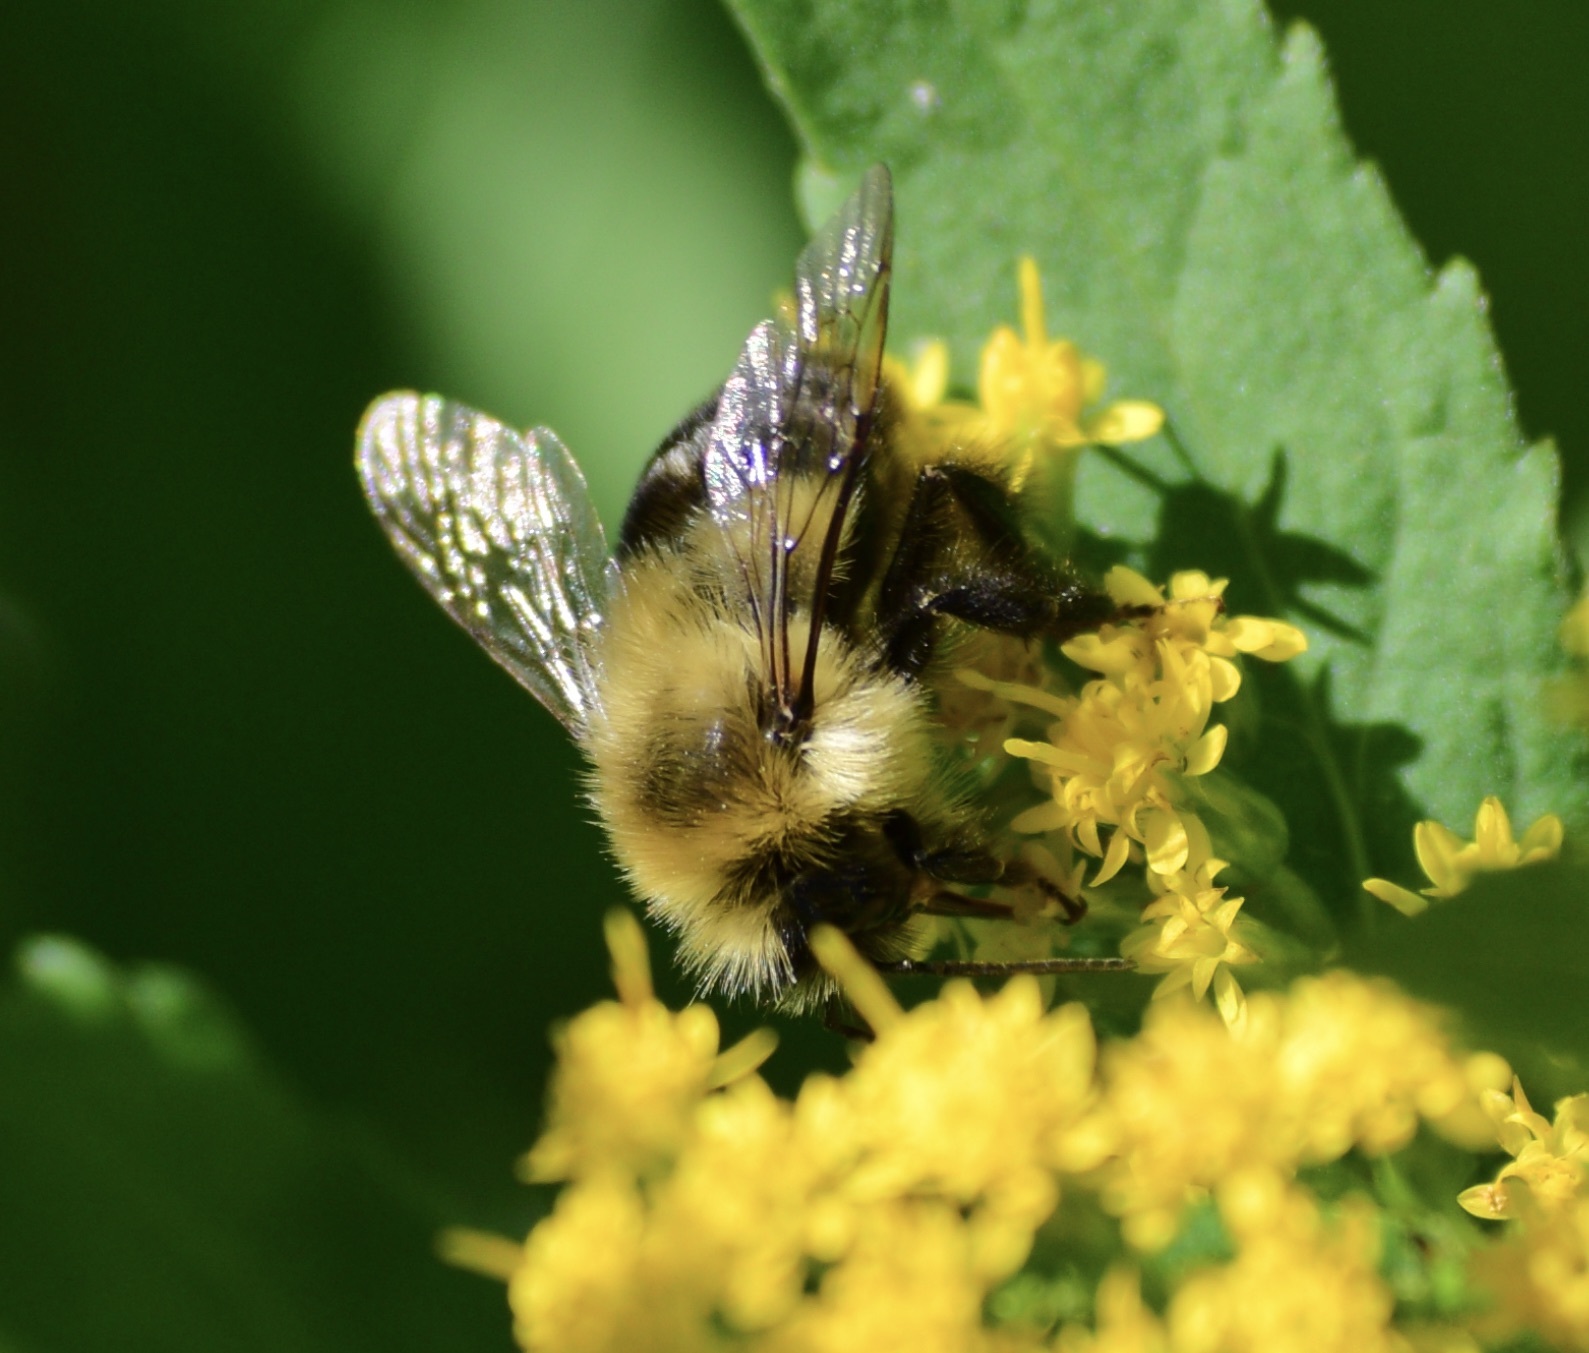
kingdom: Animalia
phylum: Arthropoda
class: Insecta
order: Hymenoptera
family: Apidae
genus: Bombus
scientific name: Bombus impatiens
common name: Common eastern bumble bee
